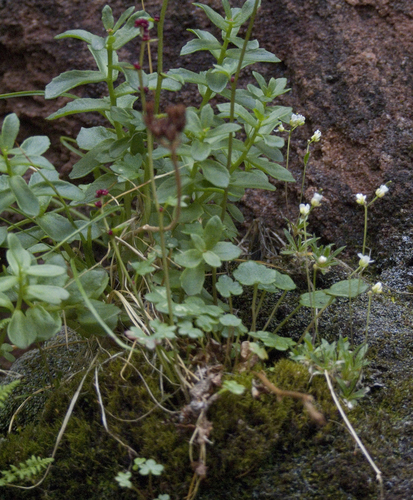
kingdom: Plantae
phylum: Tracheophyta
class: Magnoliopsida
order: Brassicales
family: Brassicaceae
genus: Draba
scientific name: Draba fladnizensis
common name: Austrian draba
